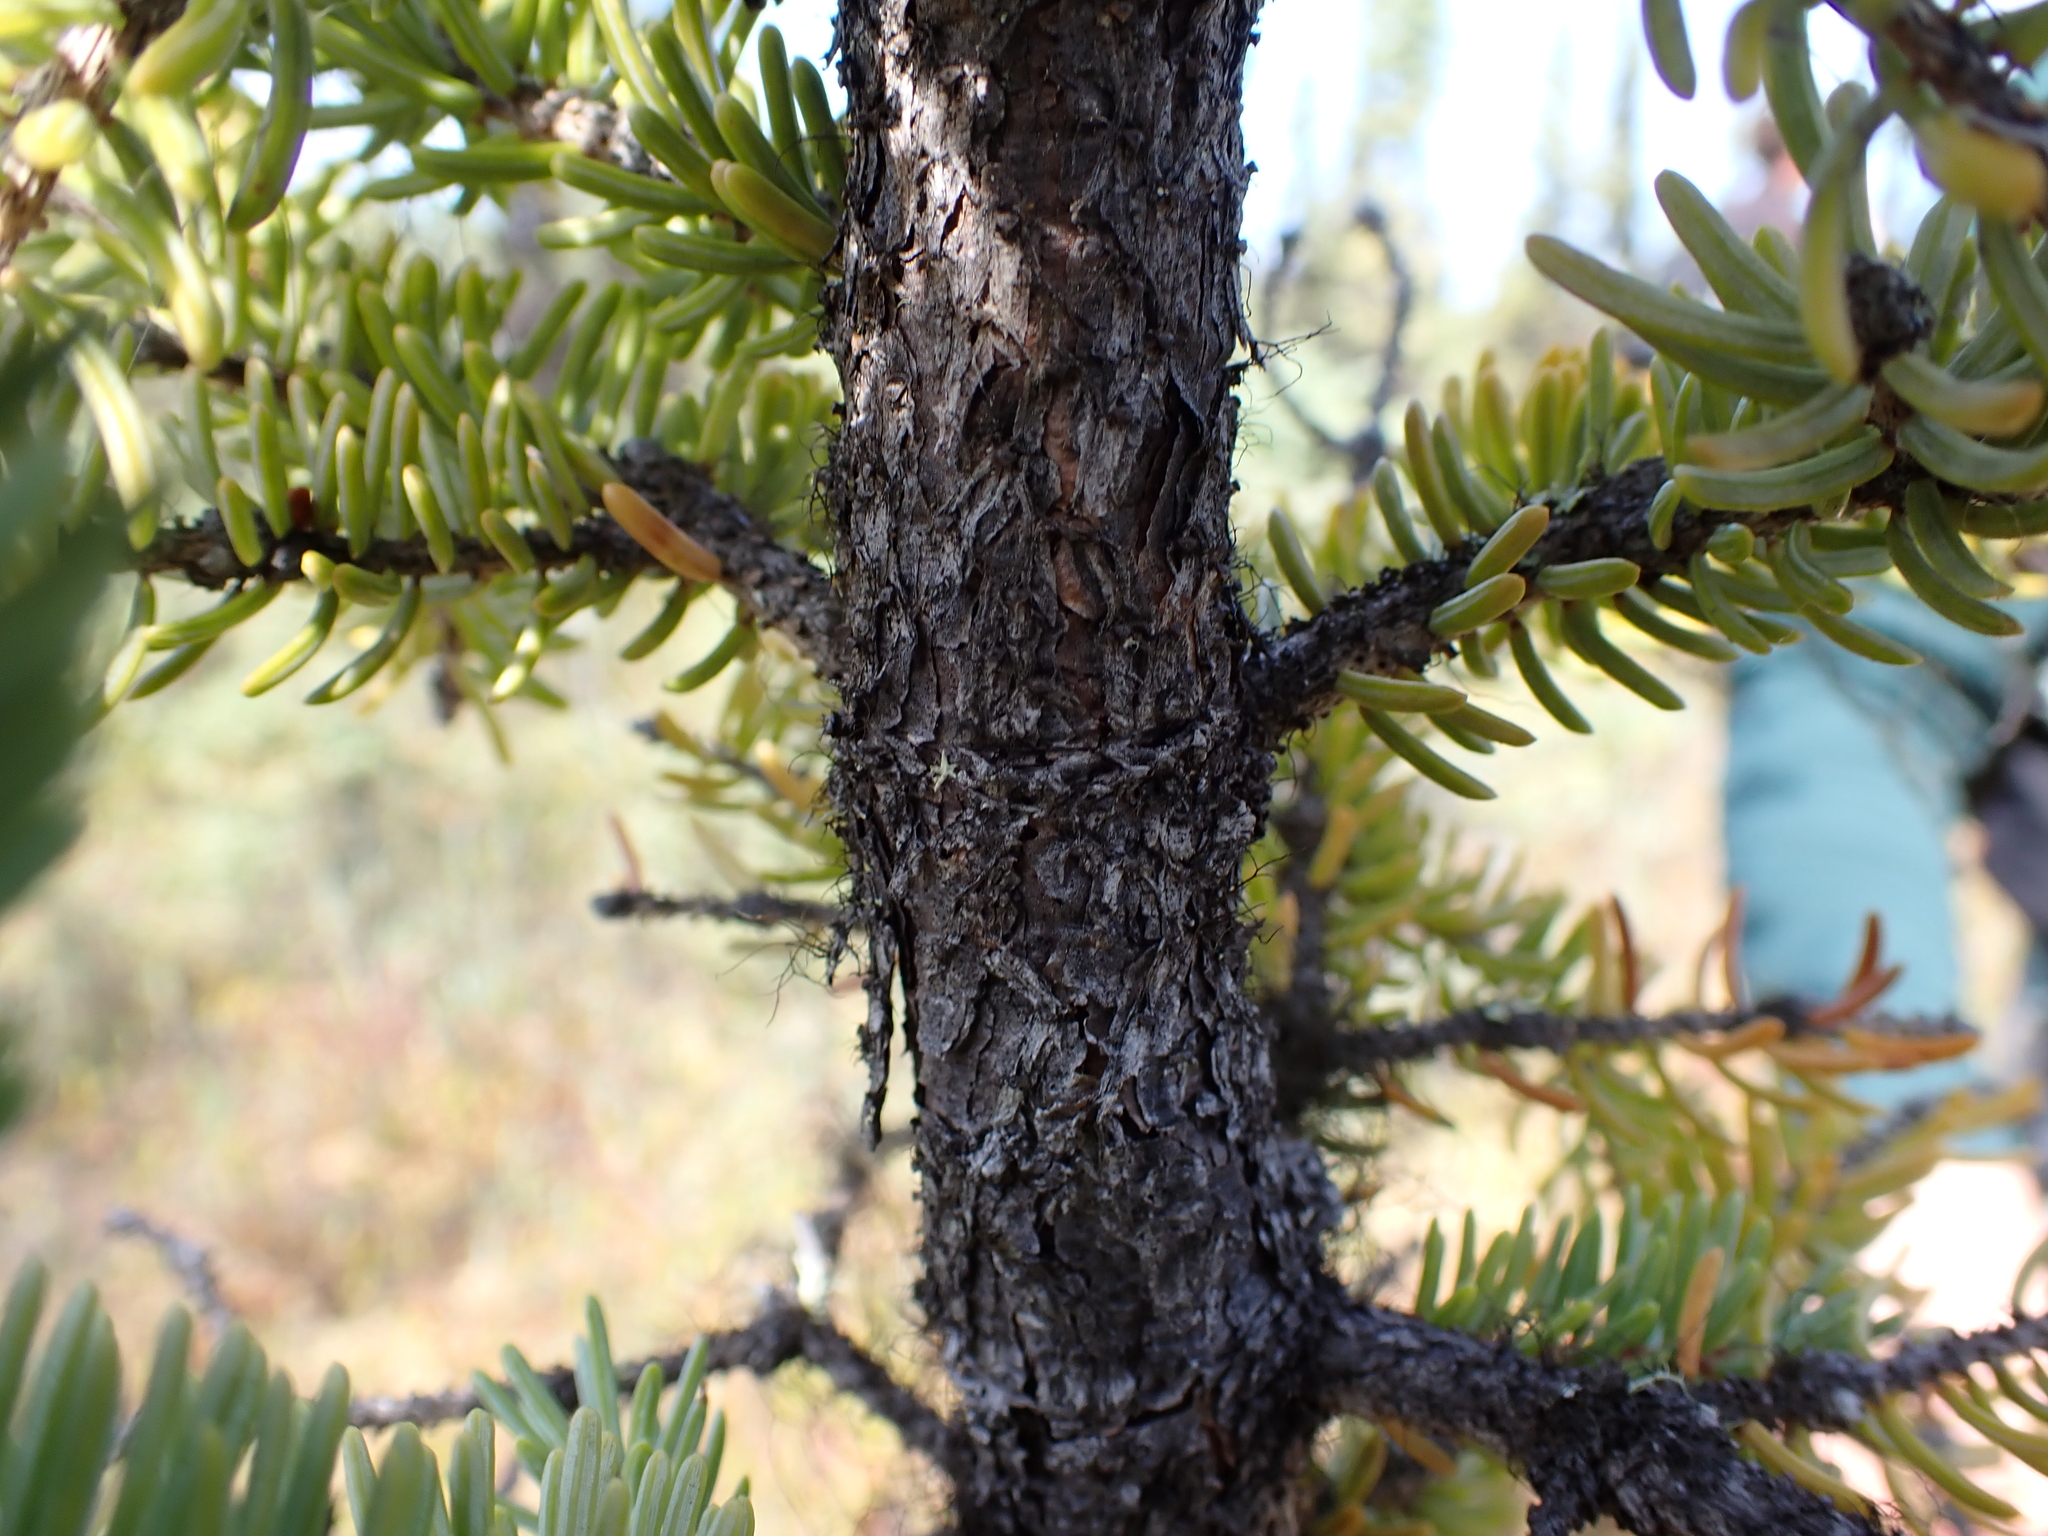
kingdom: Plantae
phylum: Tracheophyta
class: Pinopsida
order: Pinales
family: Pinaceae
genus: Picea
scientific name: Picea mariana
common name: Black spruce
